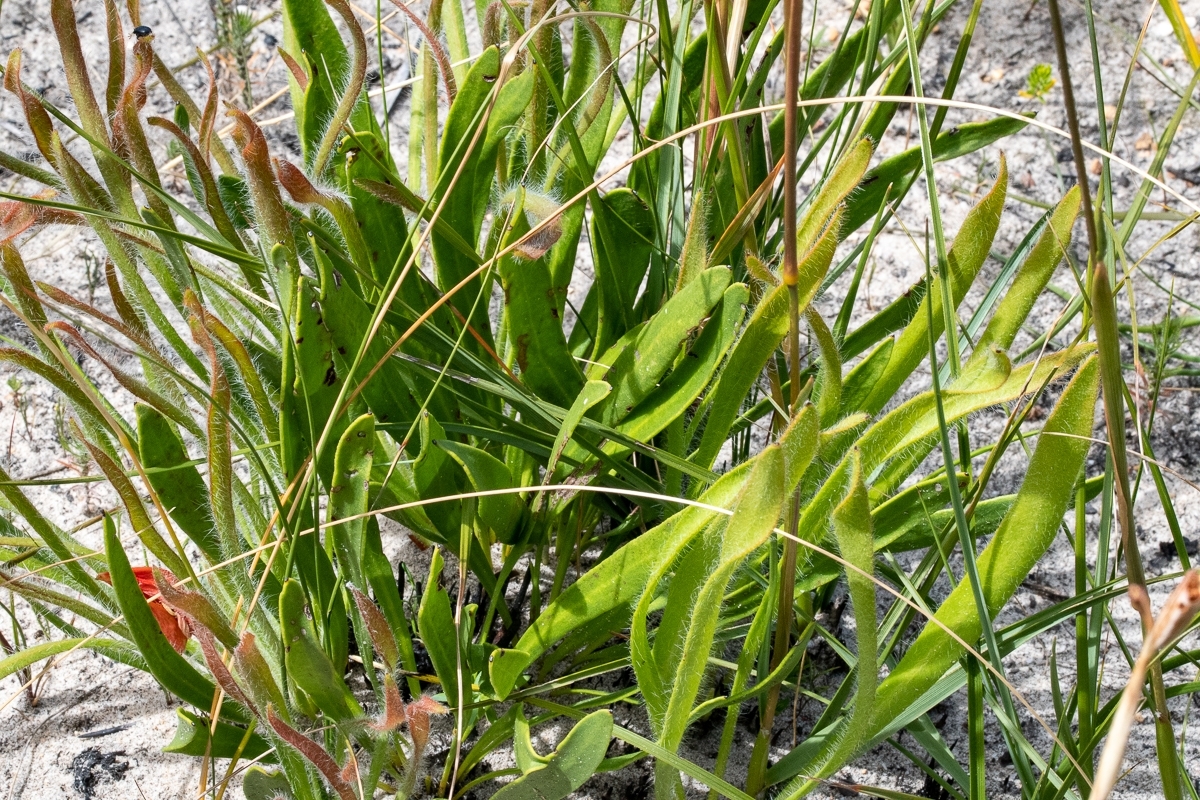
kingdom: Plantae
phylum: Tracheophyta
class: Magnoliopsida
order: Proteales
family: Proteaceae
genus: Protea
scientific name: Protea scabra
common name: Sandpaper-leaf sugarbush
